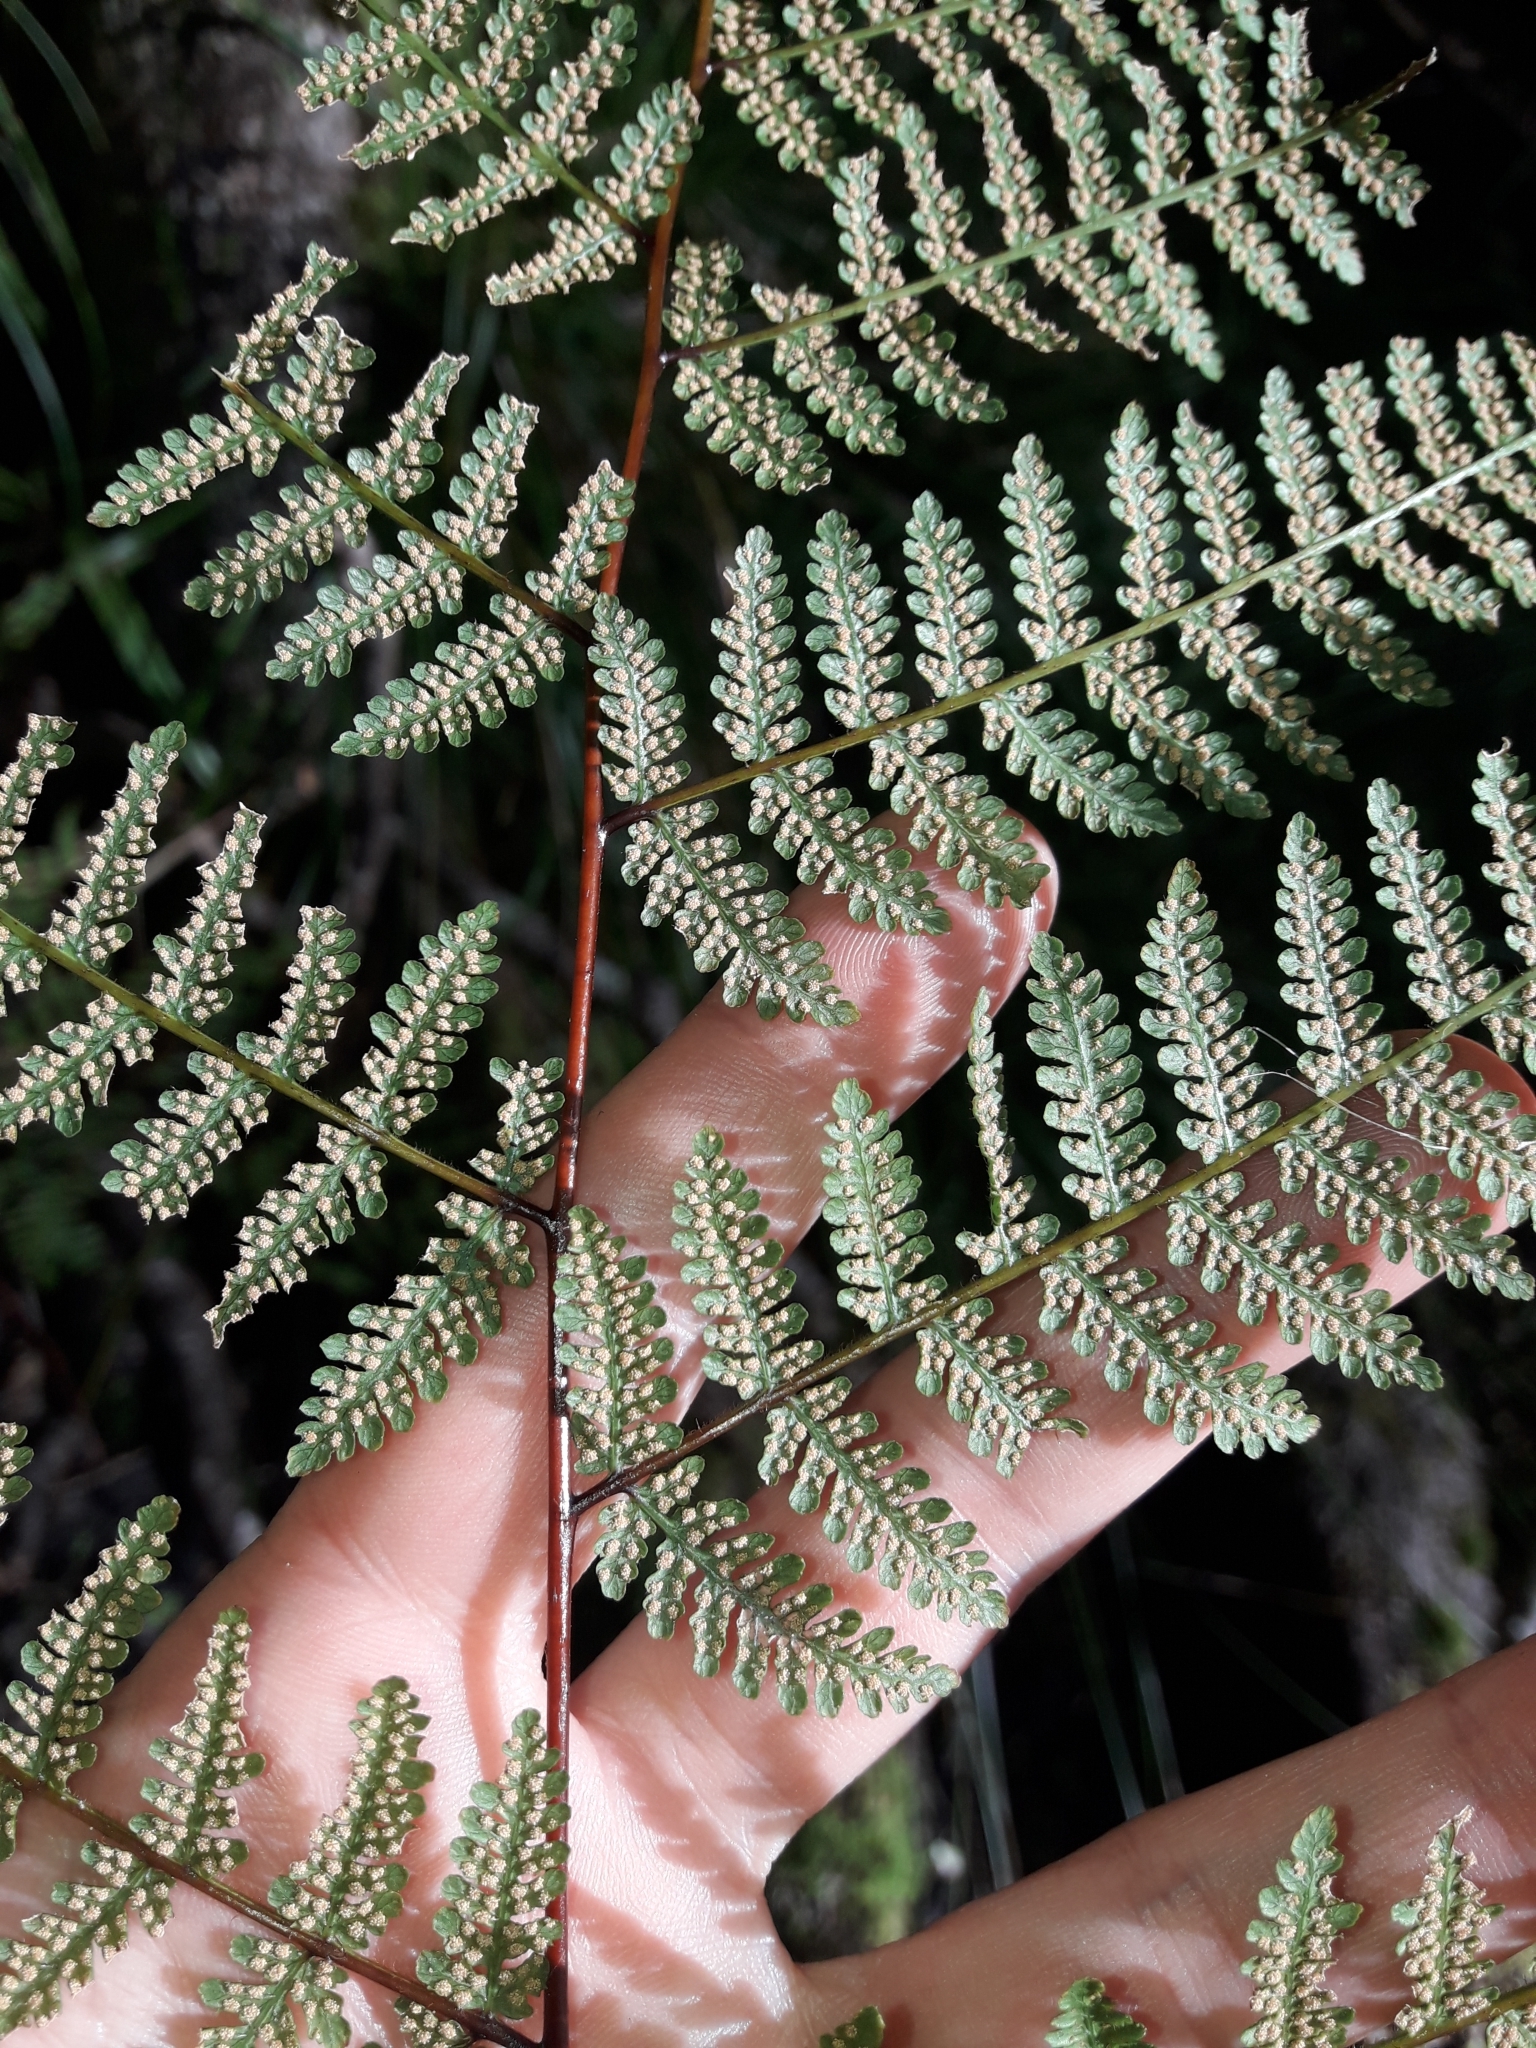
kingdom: Plantae
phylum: Tracheophyta
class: Polypodiopsida
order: Polypodiales
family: Dennstaedtiaceae
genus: Hypolepis
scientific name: Hypolepis ambigua
